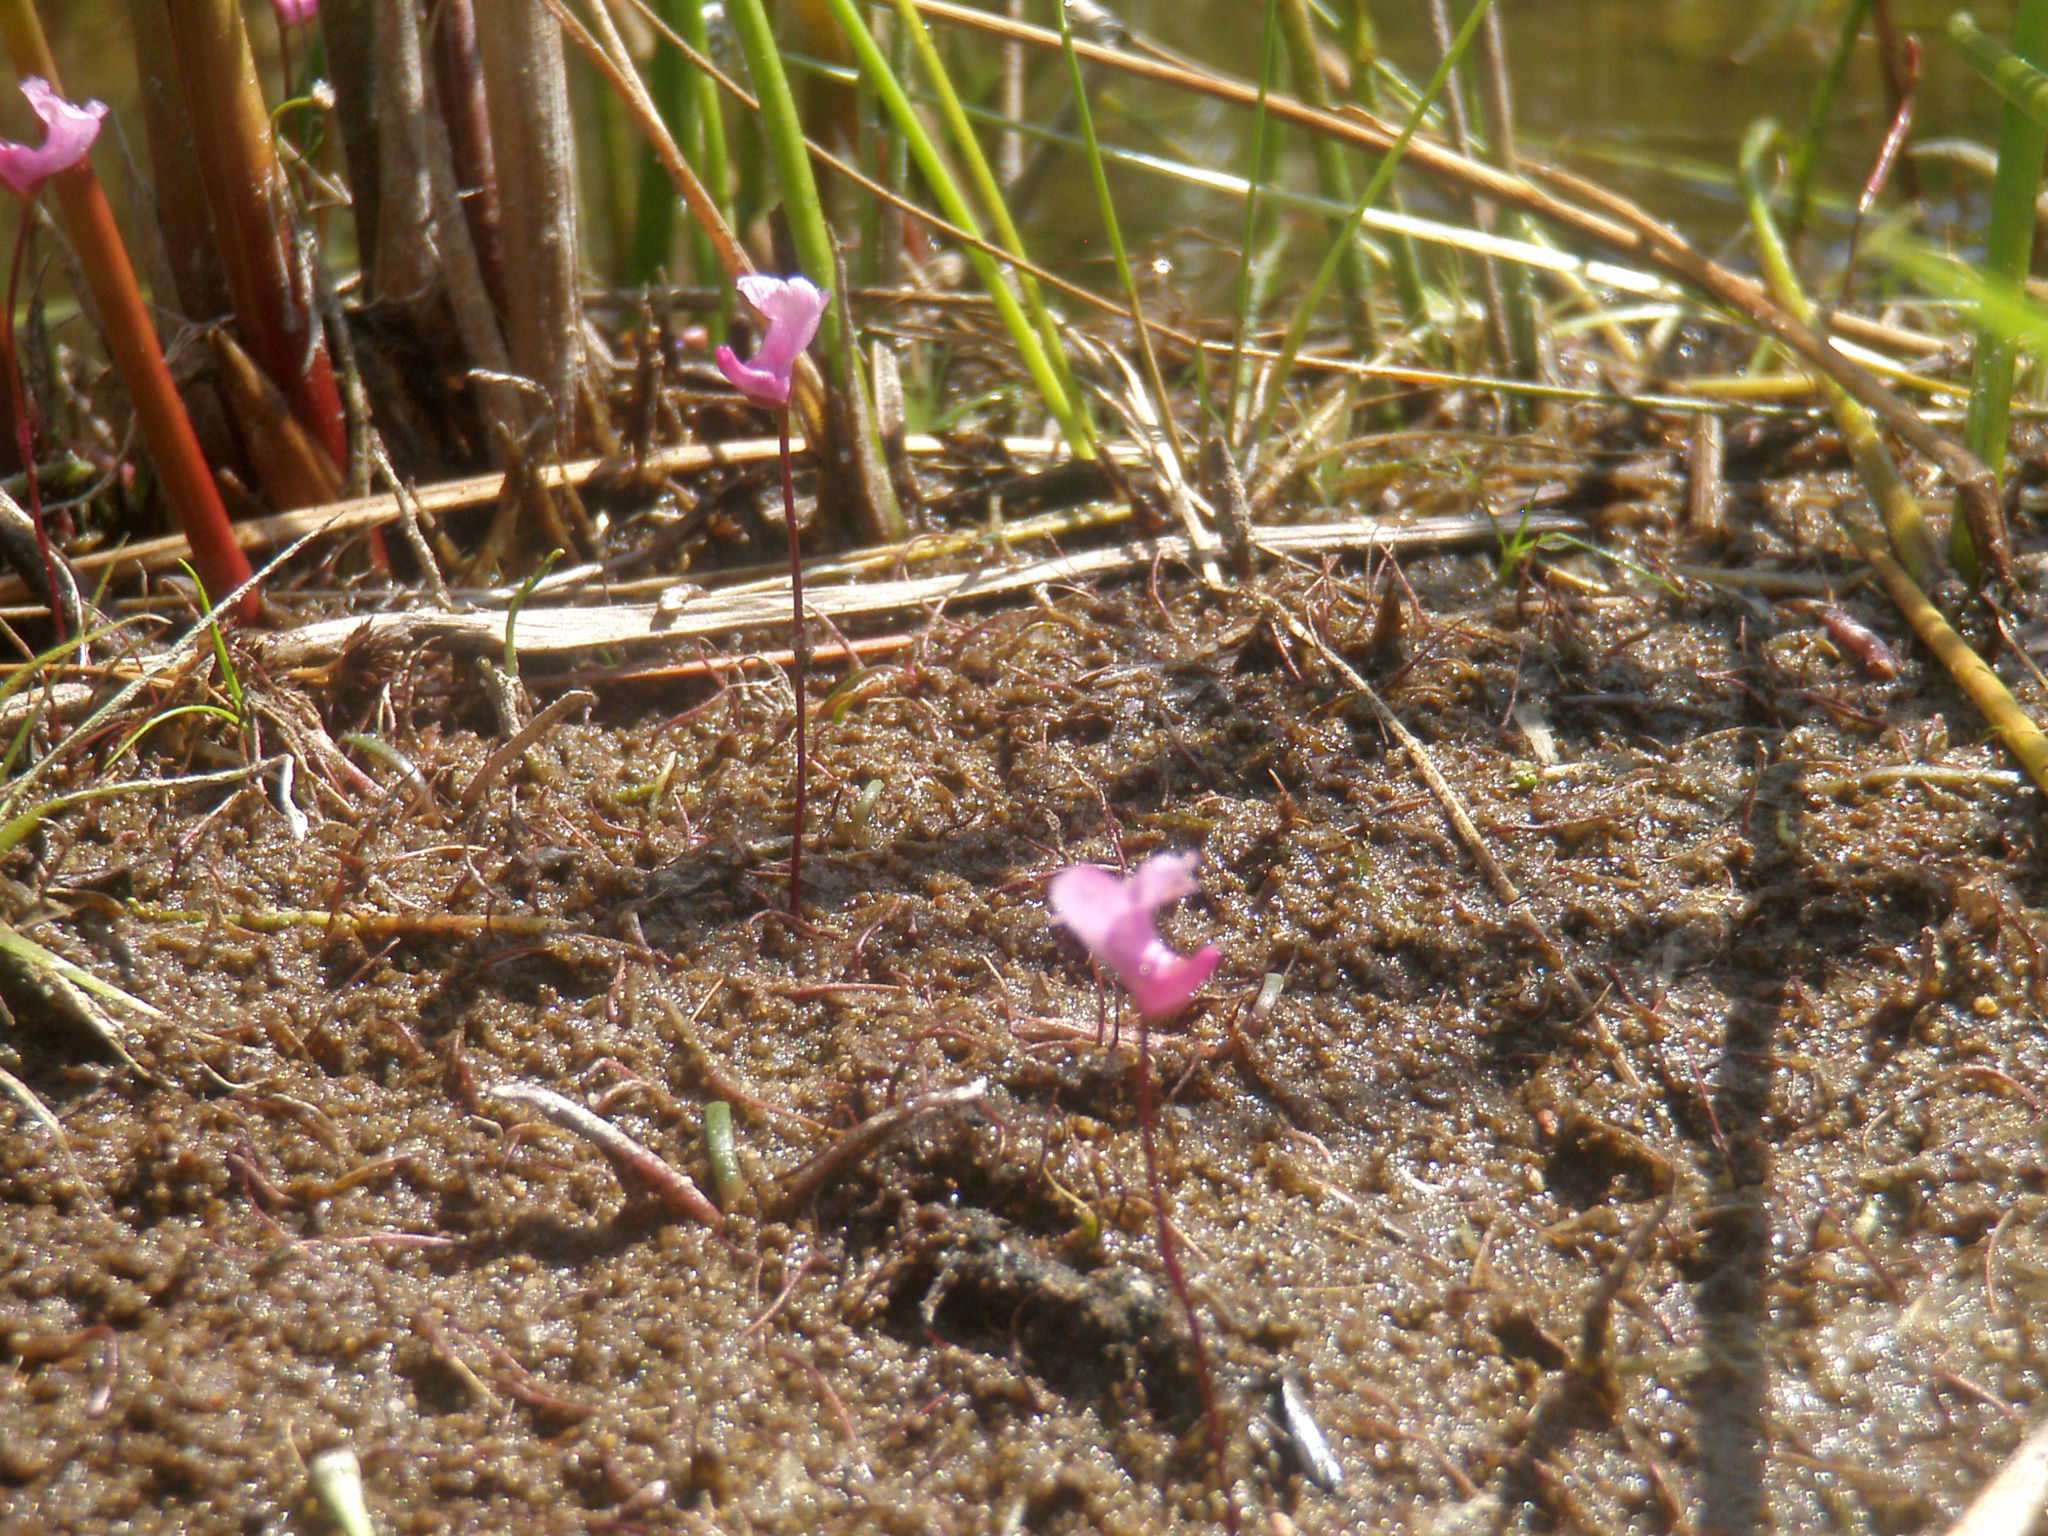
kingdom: Plantae
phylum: Tracheophyta
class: Magnoliopsida
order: Lamiales
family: Lentibulariaceae
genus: Utricularia
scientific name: Utricularia resupinata
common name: Northeastern bladderwort
